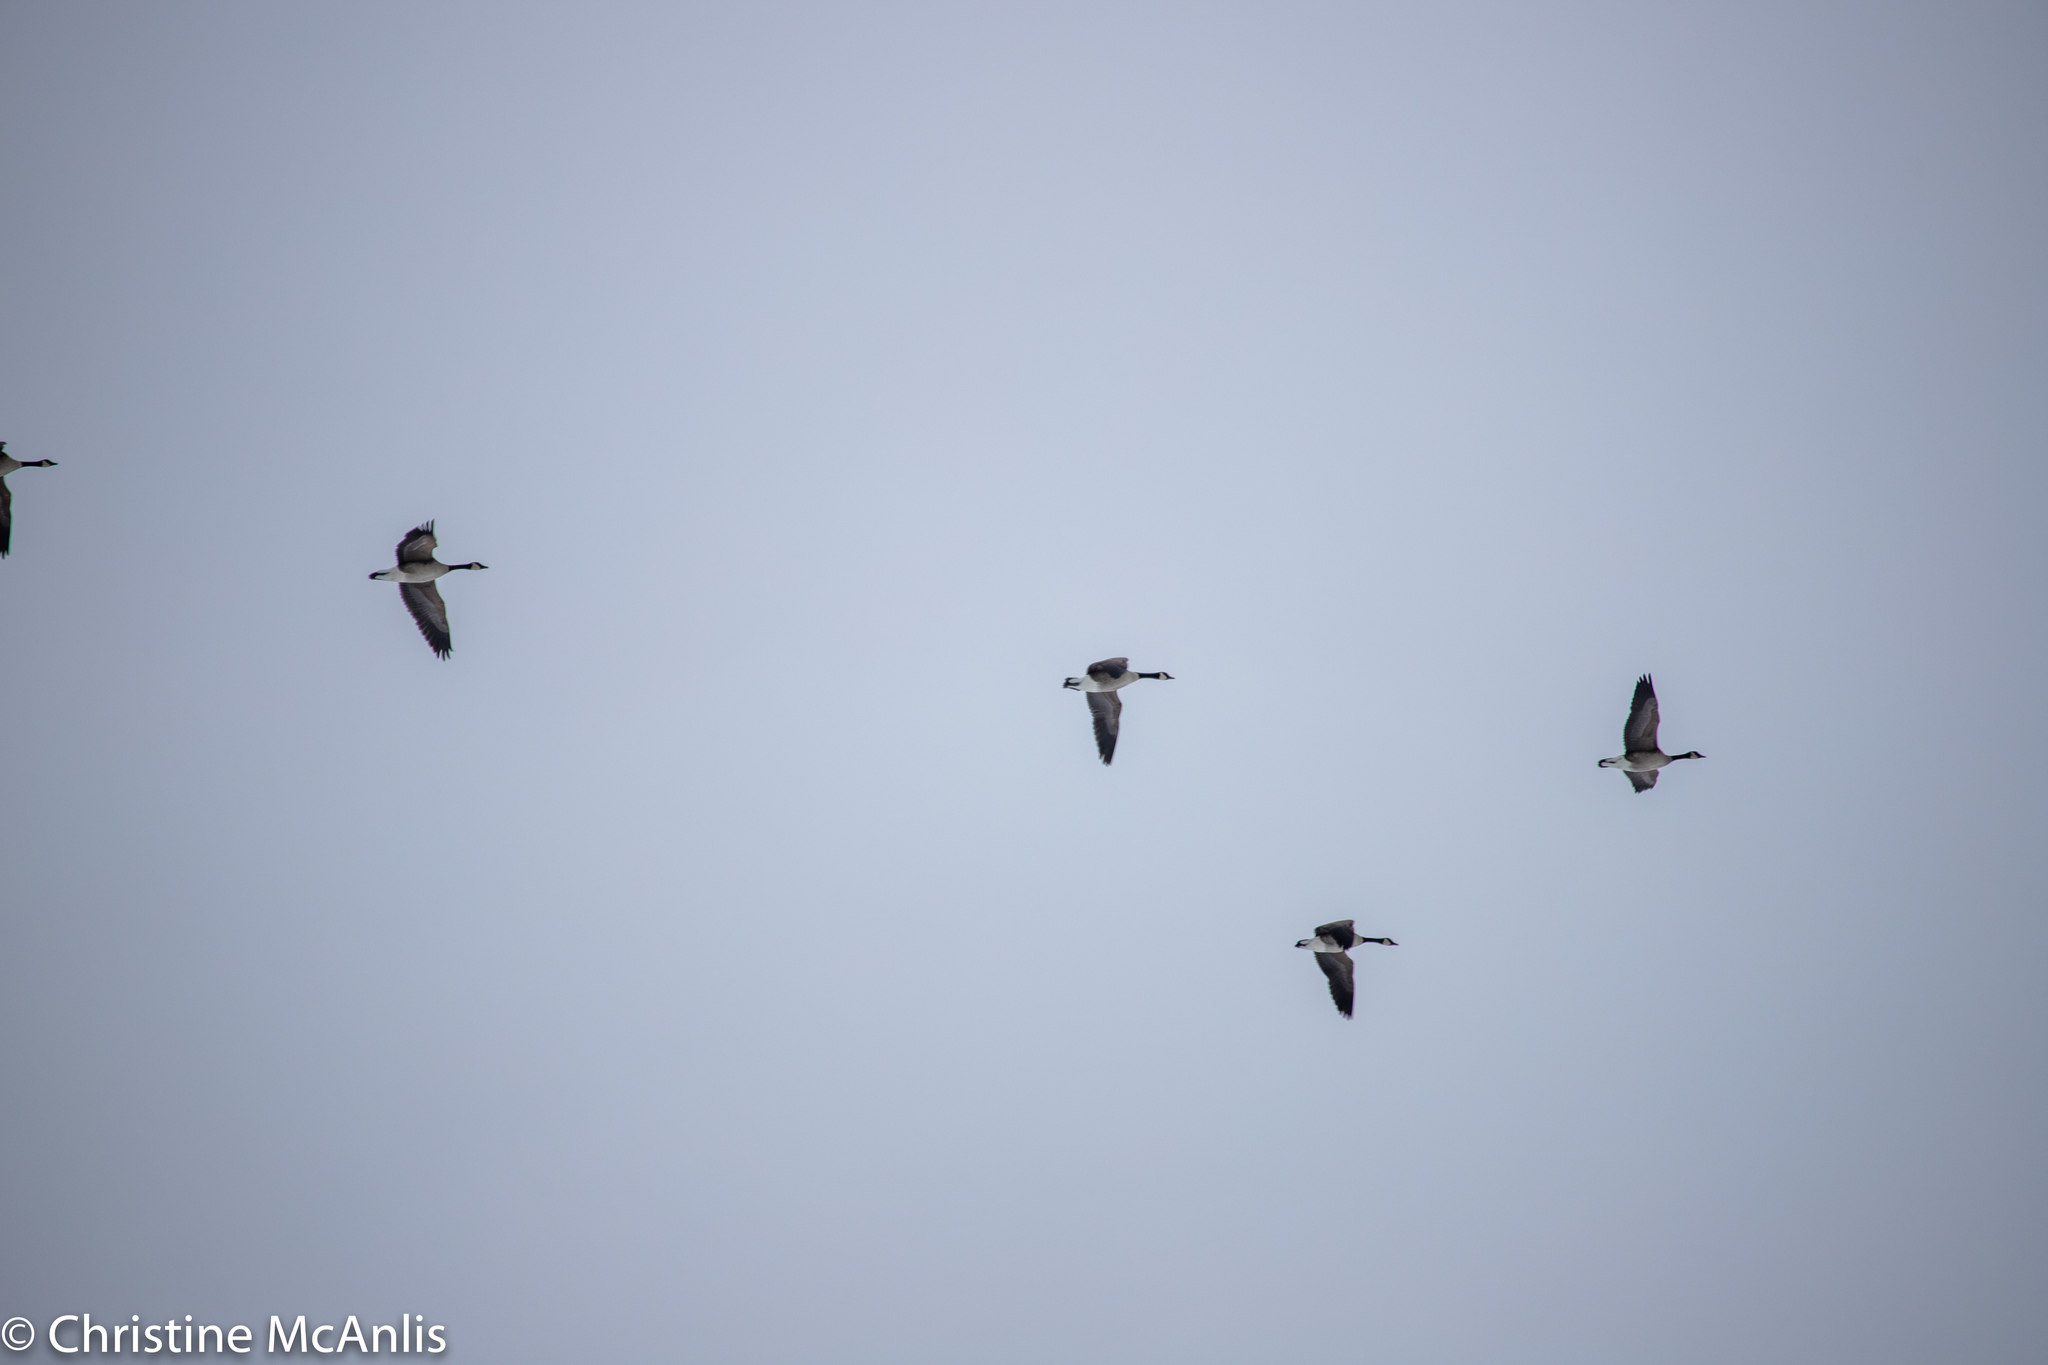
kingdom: Animalia
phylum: Chordata
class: Aves
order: Anseriformes
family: Anatidae
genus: Branta
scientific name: Branta canadensis
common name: Canada goose
